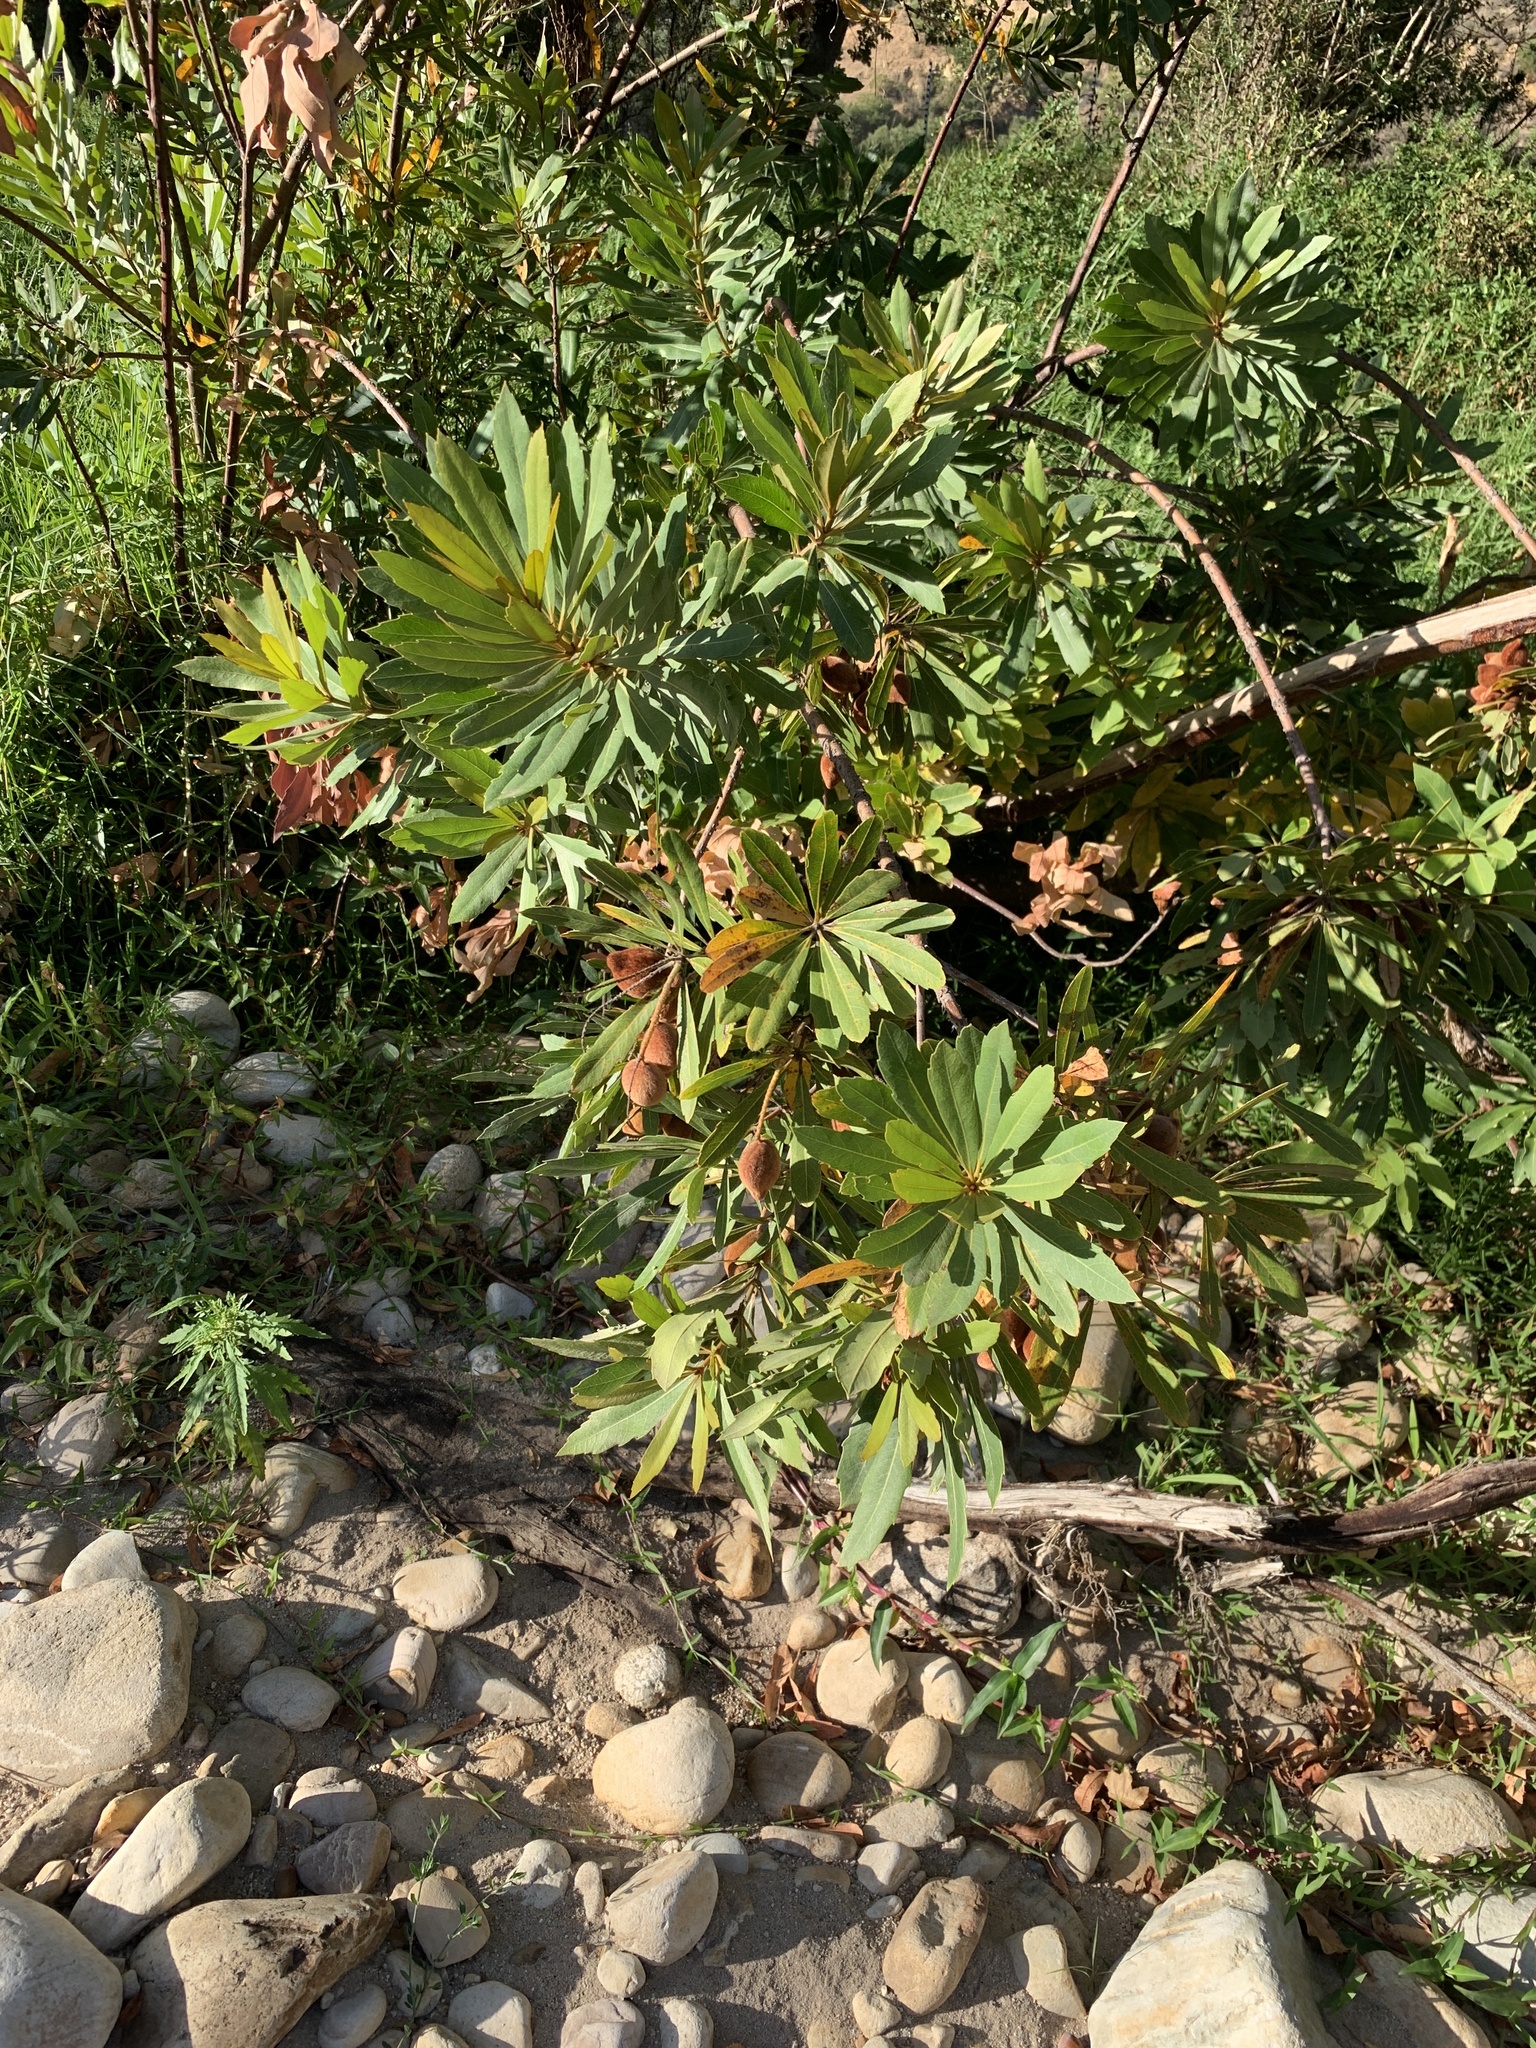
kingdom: Plantae
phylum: Tracheophyta
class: Magnoliopsida
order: Proteales
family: Proteaceae
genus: Brabejum
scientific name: Brabejum stellatifolium
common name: Wild almond
